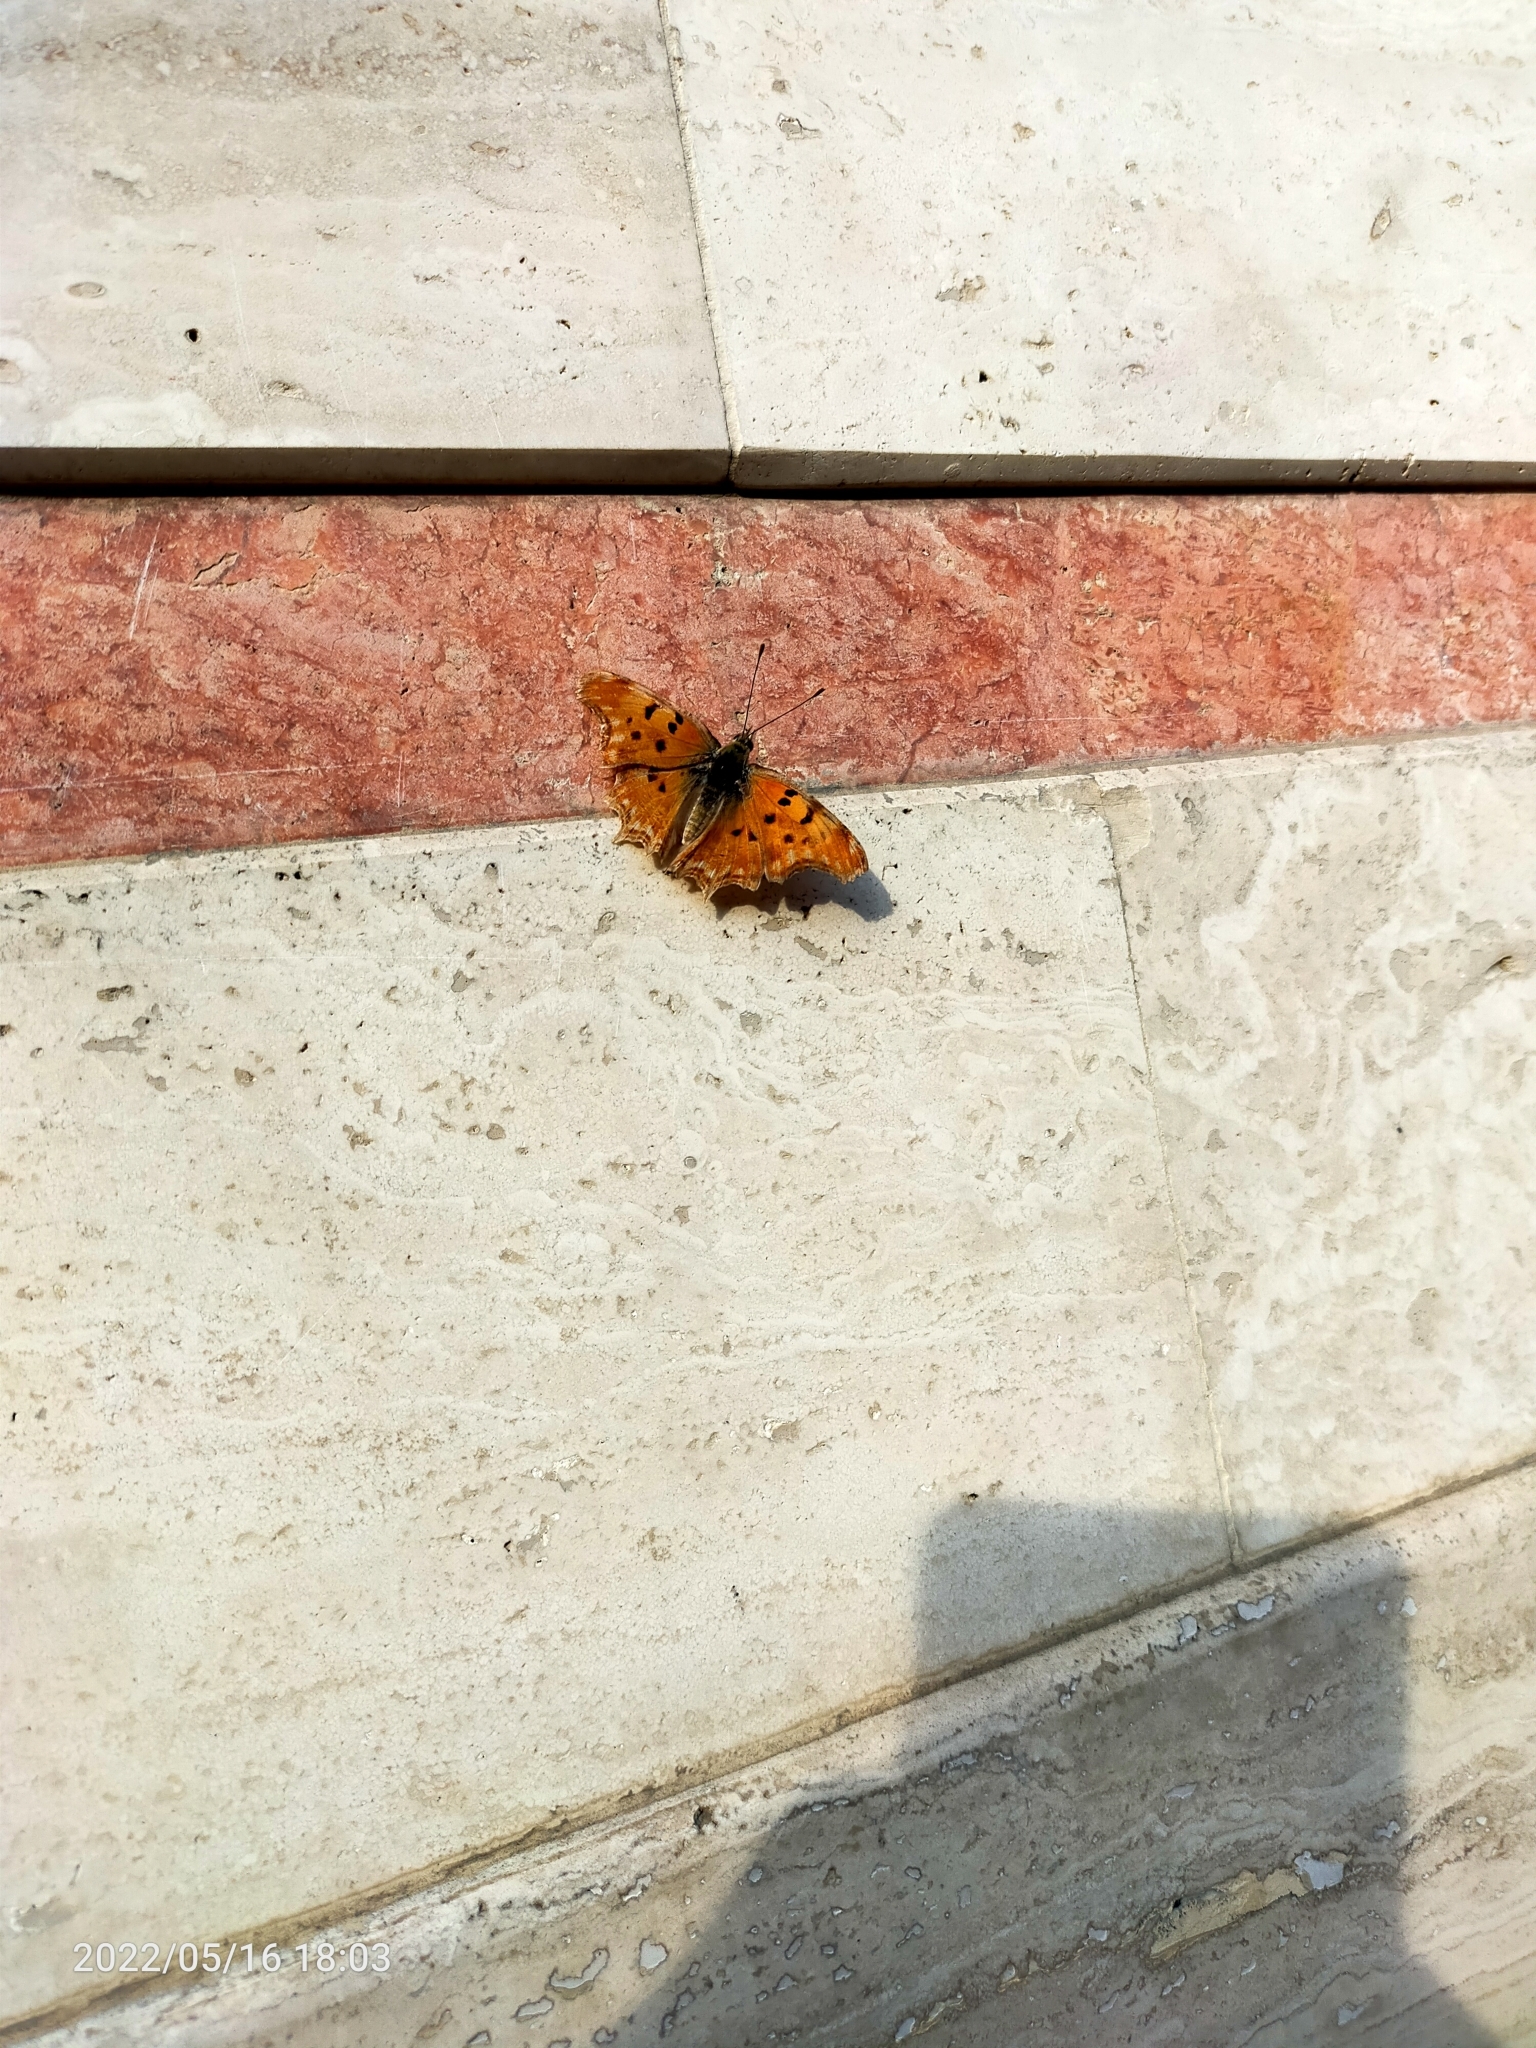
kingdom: Animalia
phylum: Arthropoda
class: Insecta
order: Lepidoptera
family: Nymphalidae
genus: Polygonia
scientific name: Polygonia egea
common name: Southern comma
